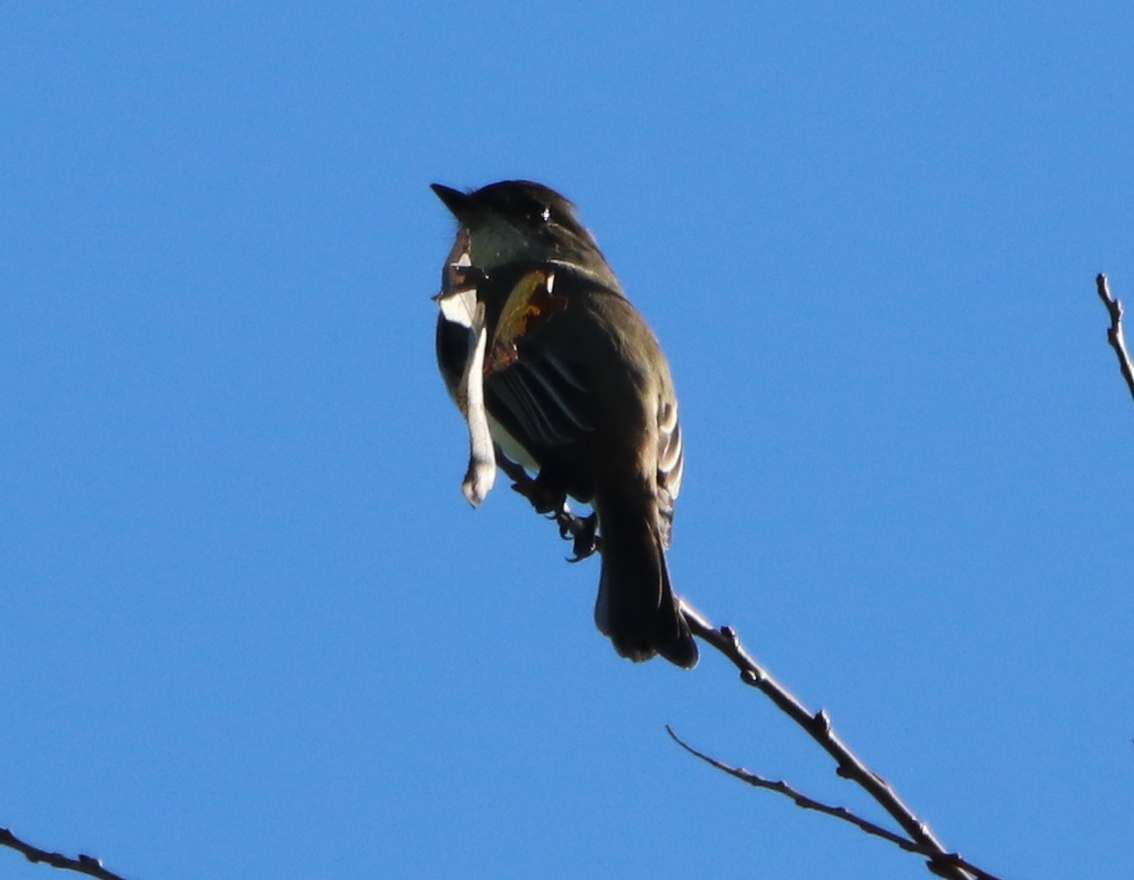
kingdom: Animalia
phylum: Chordata
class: Aves
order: Passeriformes
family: Tyrannidae
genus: Sayornis
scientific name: Sayornis phoebe
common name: Eastern phoebe
